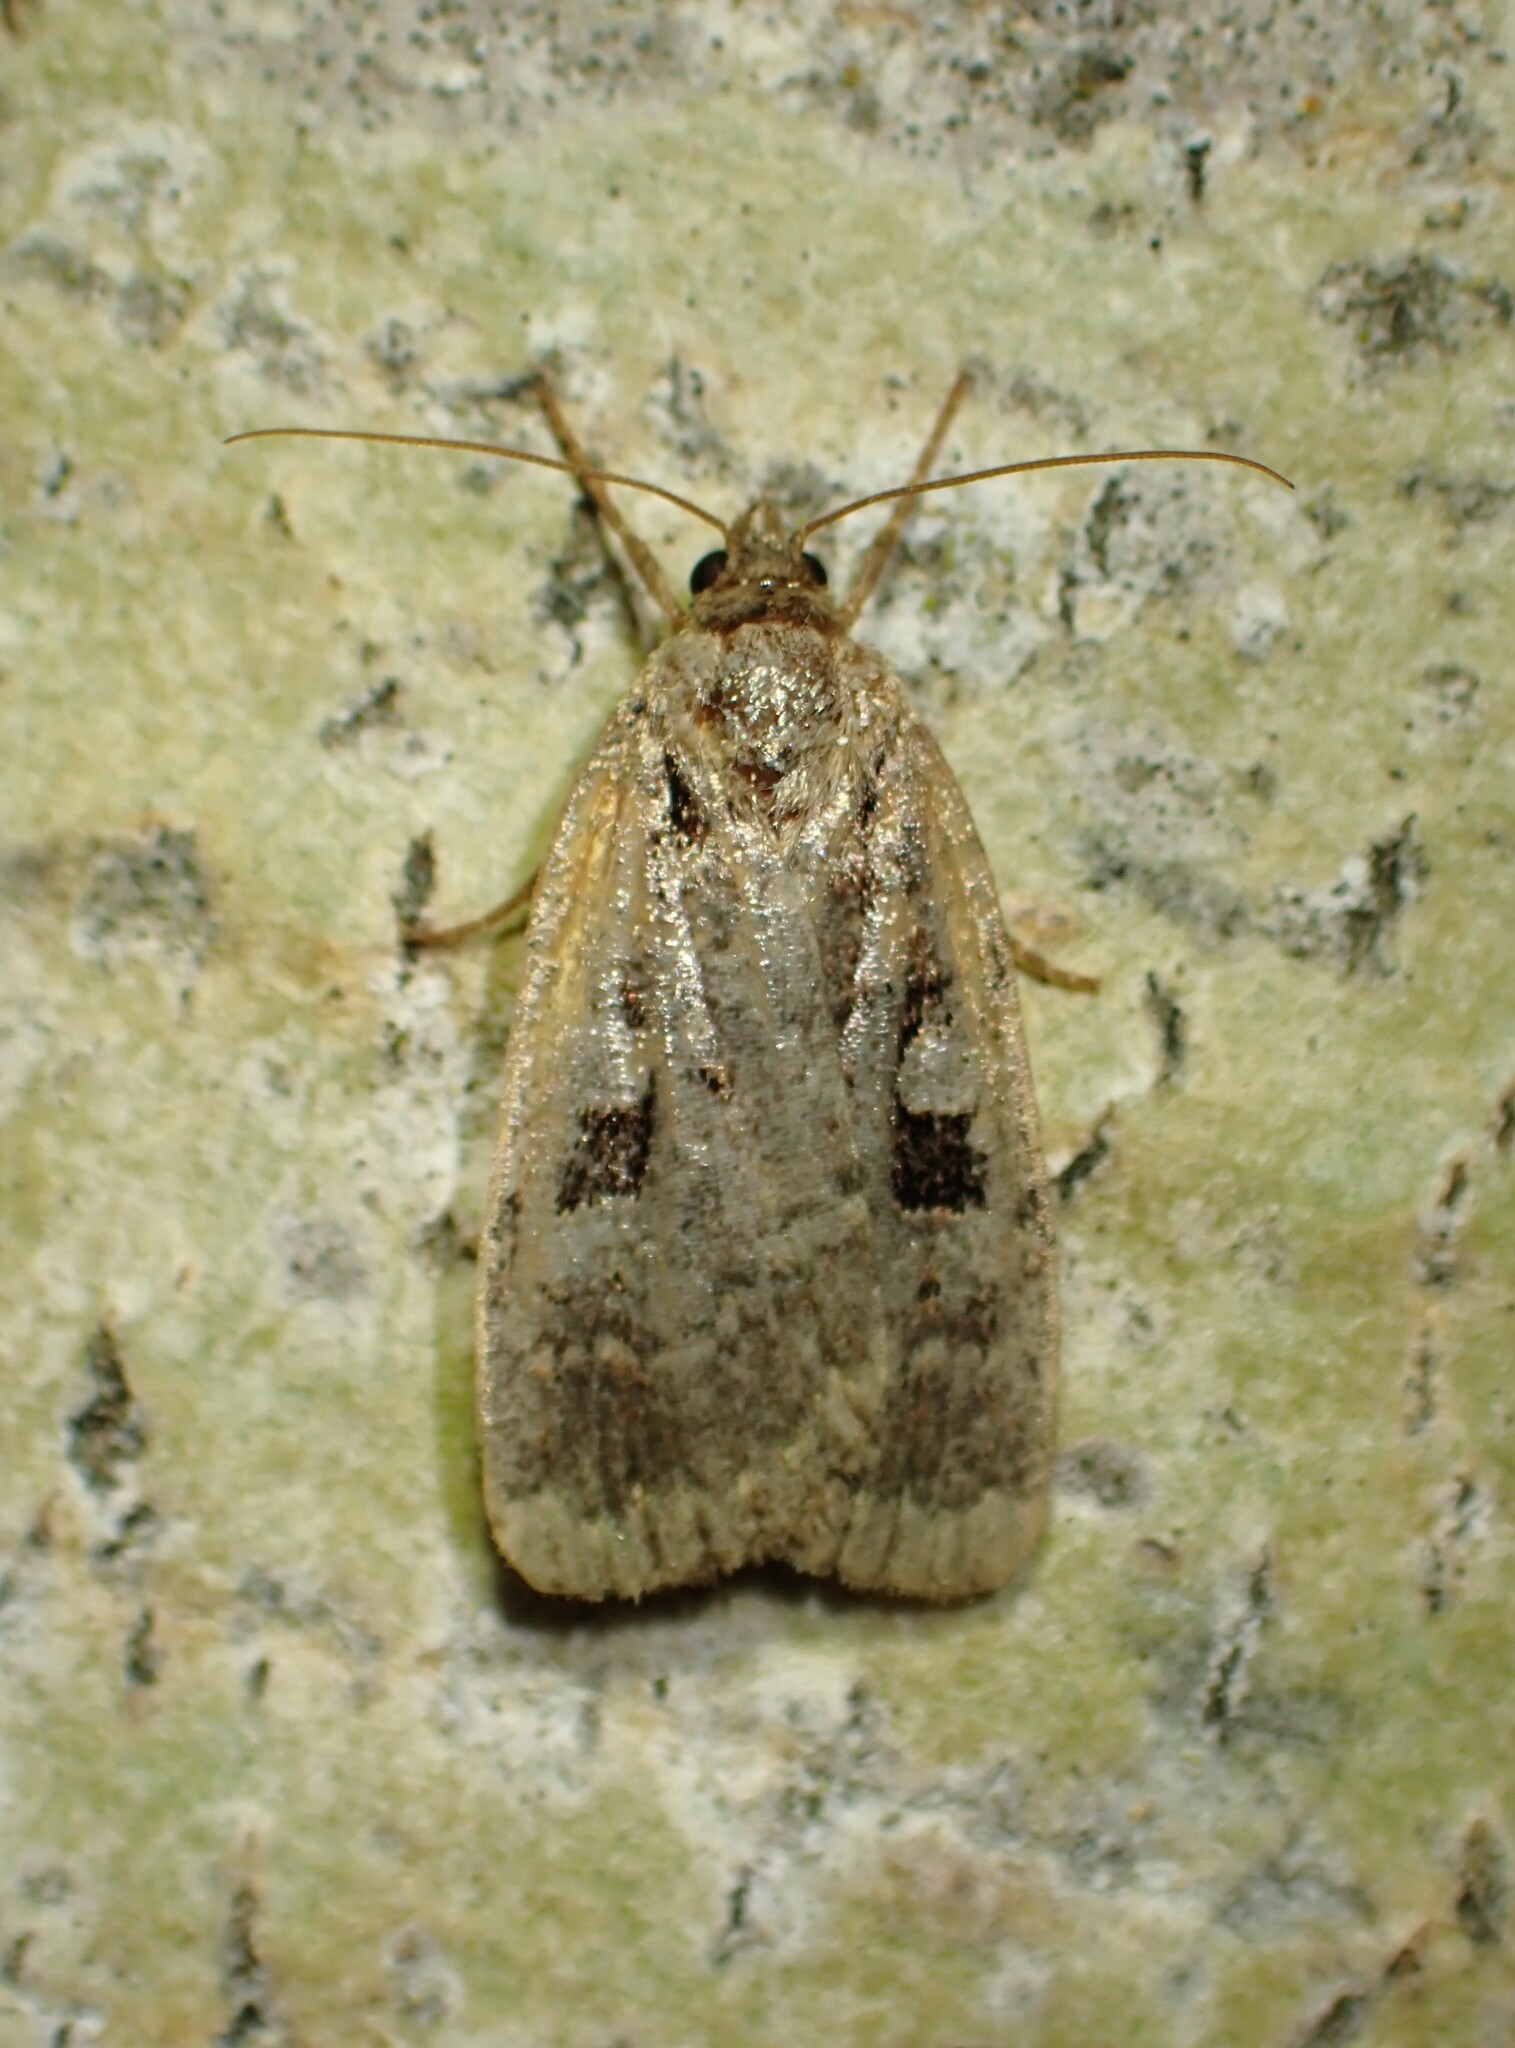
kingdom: Animalia
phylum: Arthropoda
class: Insecta
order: Lepidoptera
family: Noctuidae
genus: Eueretagrotis
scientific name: Eueretagrotis perattentus
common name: Two-spot dart moth
